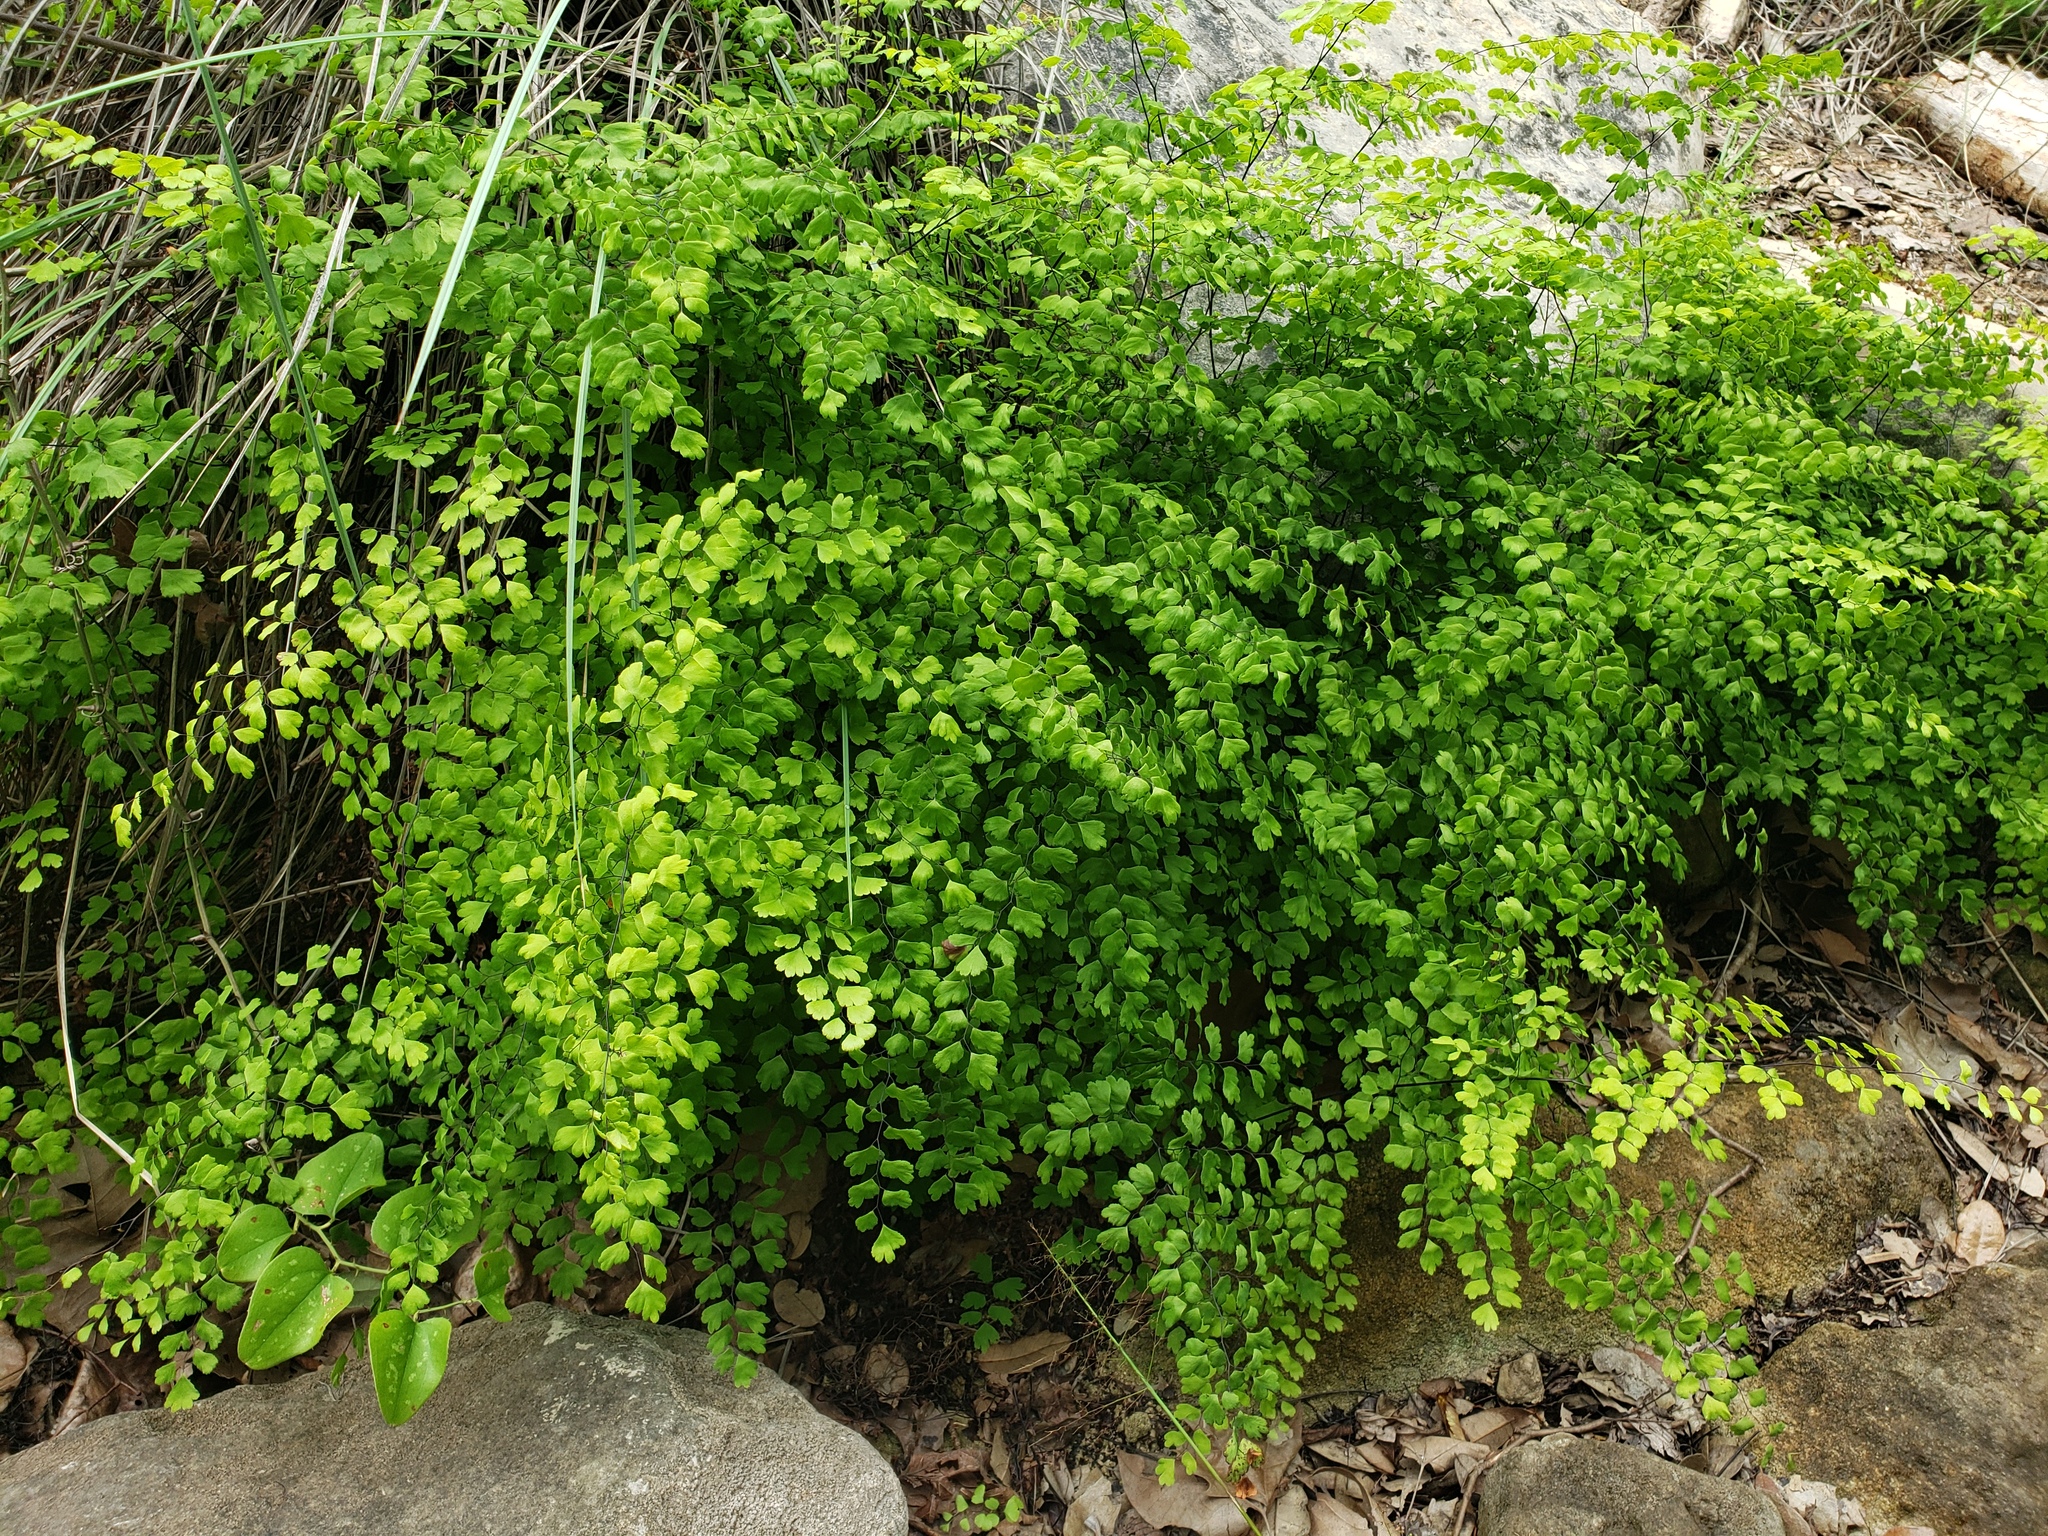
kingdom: Plantae
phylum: Tracheophyta
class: Polypodiopsida
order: Polypodiales
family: Pteridaceae
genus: Adiantum
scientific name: Adiantum capillus-veneris
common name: Maidenhair fern
